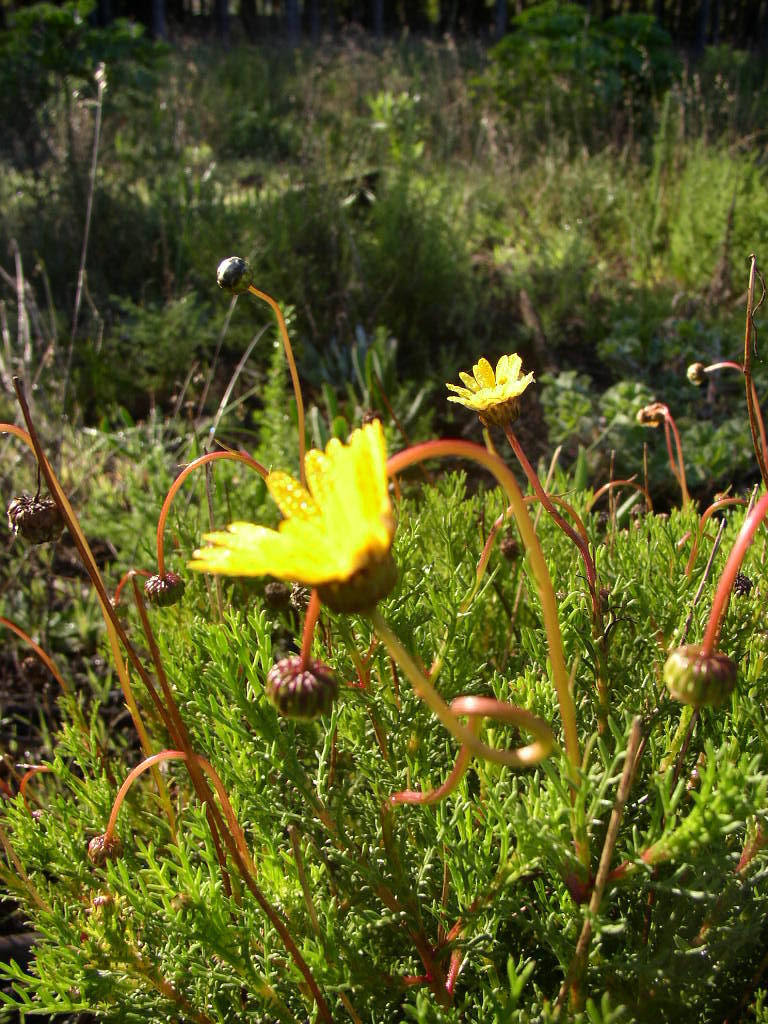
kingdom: Plantae
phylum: Tracheophyta
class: Magnoliopsida
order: Asterales
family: Asteraceae
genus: Ursinia
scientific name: Ursinia anthemoides
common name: Ursinia
